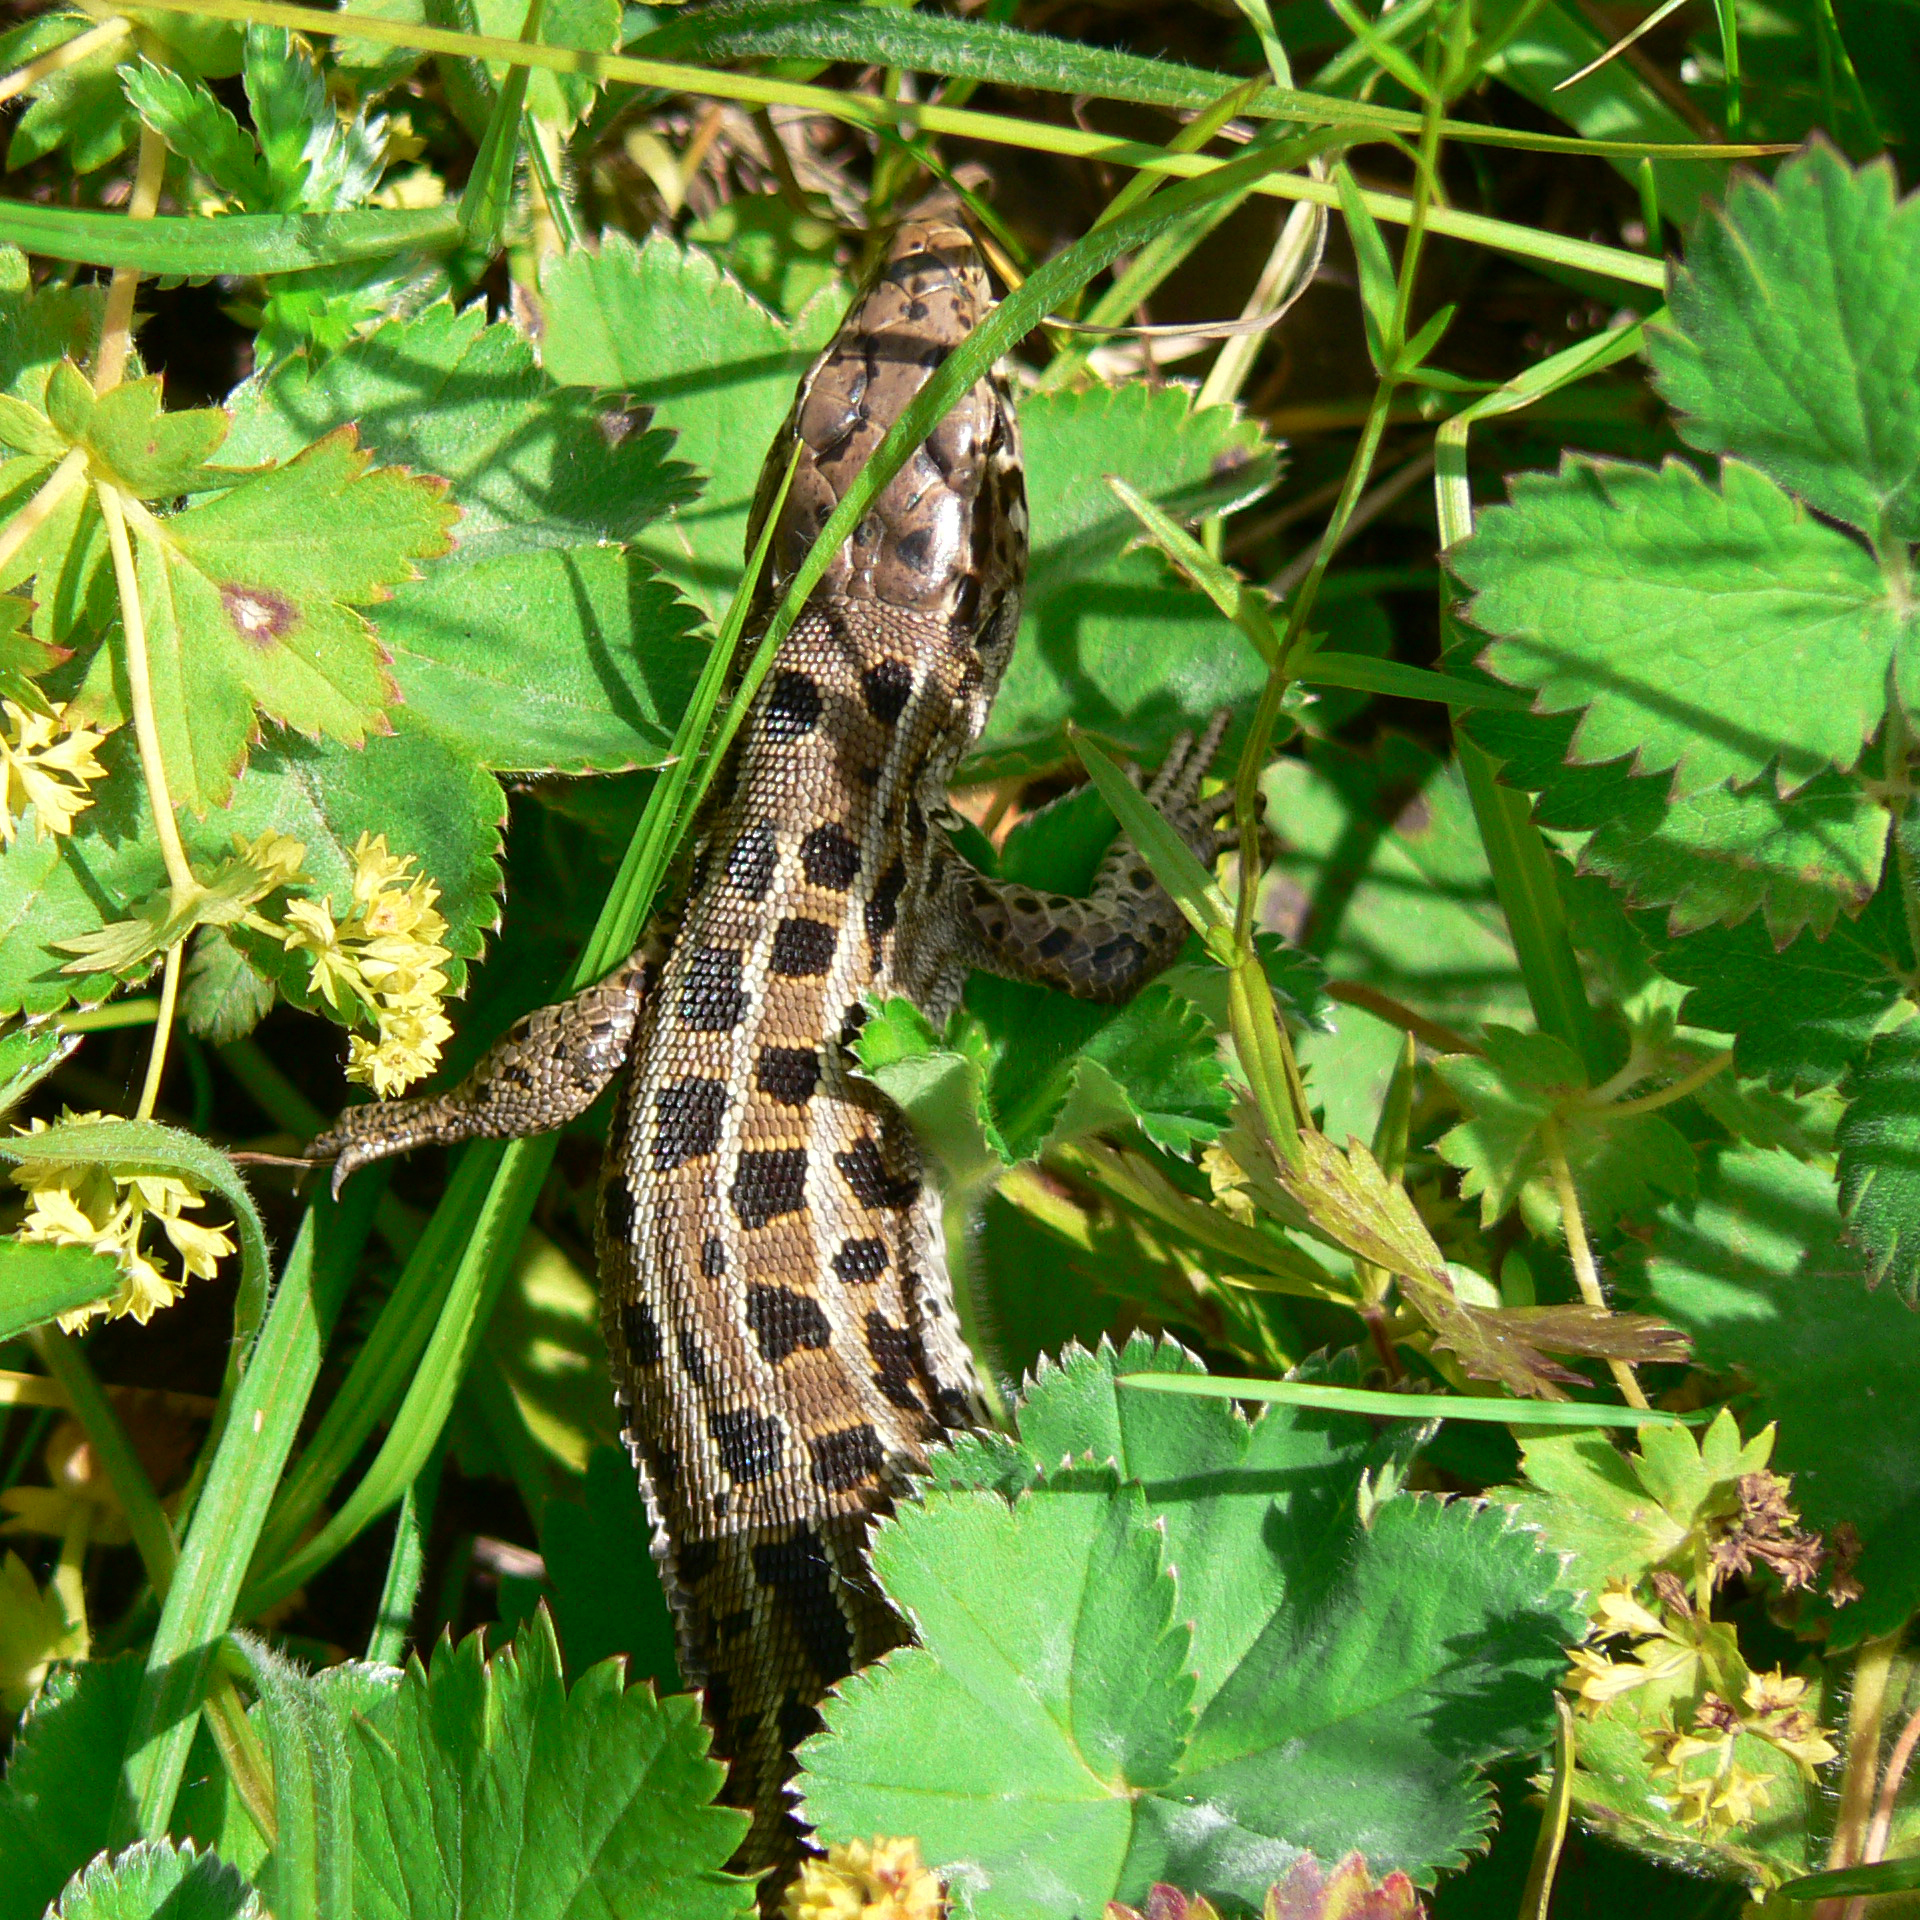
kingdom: Animalia
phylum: Chordata
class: Squamata
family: Lacertidae
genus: Lacerta
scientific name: Lacerta agilis
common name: Sand lizard
